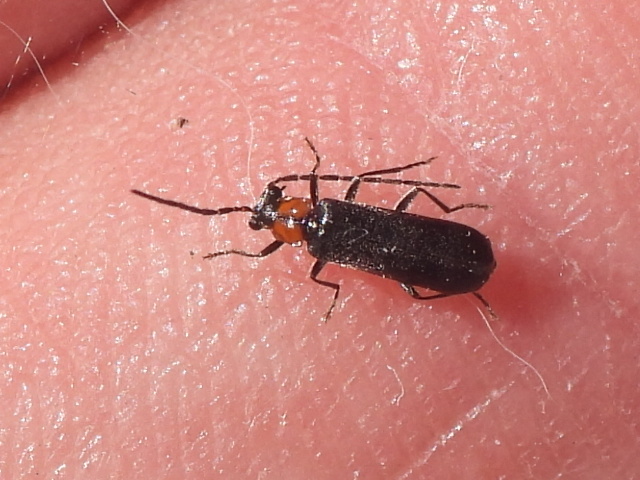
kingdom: Animalia
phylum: Arthropoda
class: Insecta
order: Coleoptera
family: Cantharidae
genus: Rhagonycha
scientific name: Rhagonycha lineola
